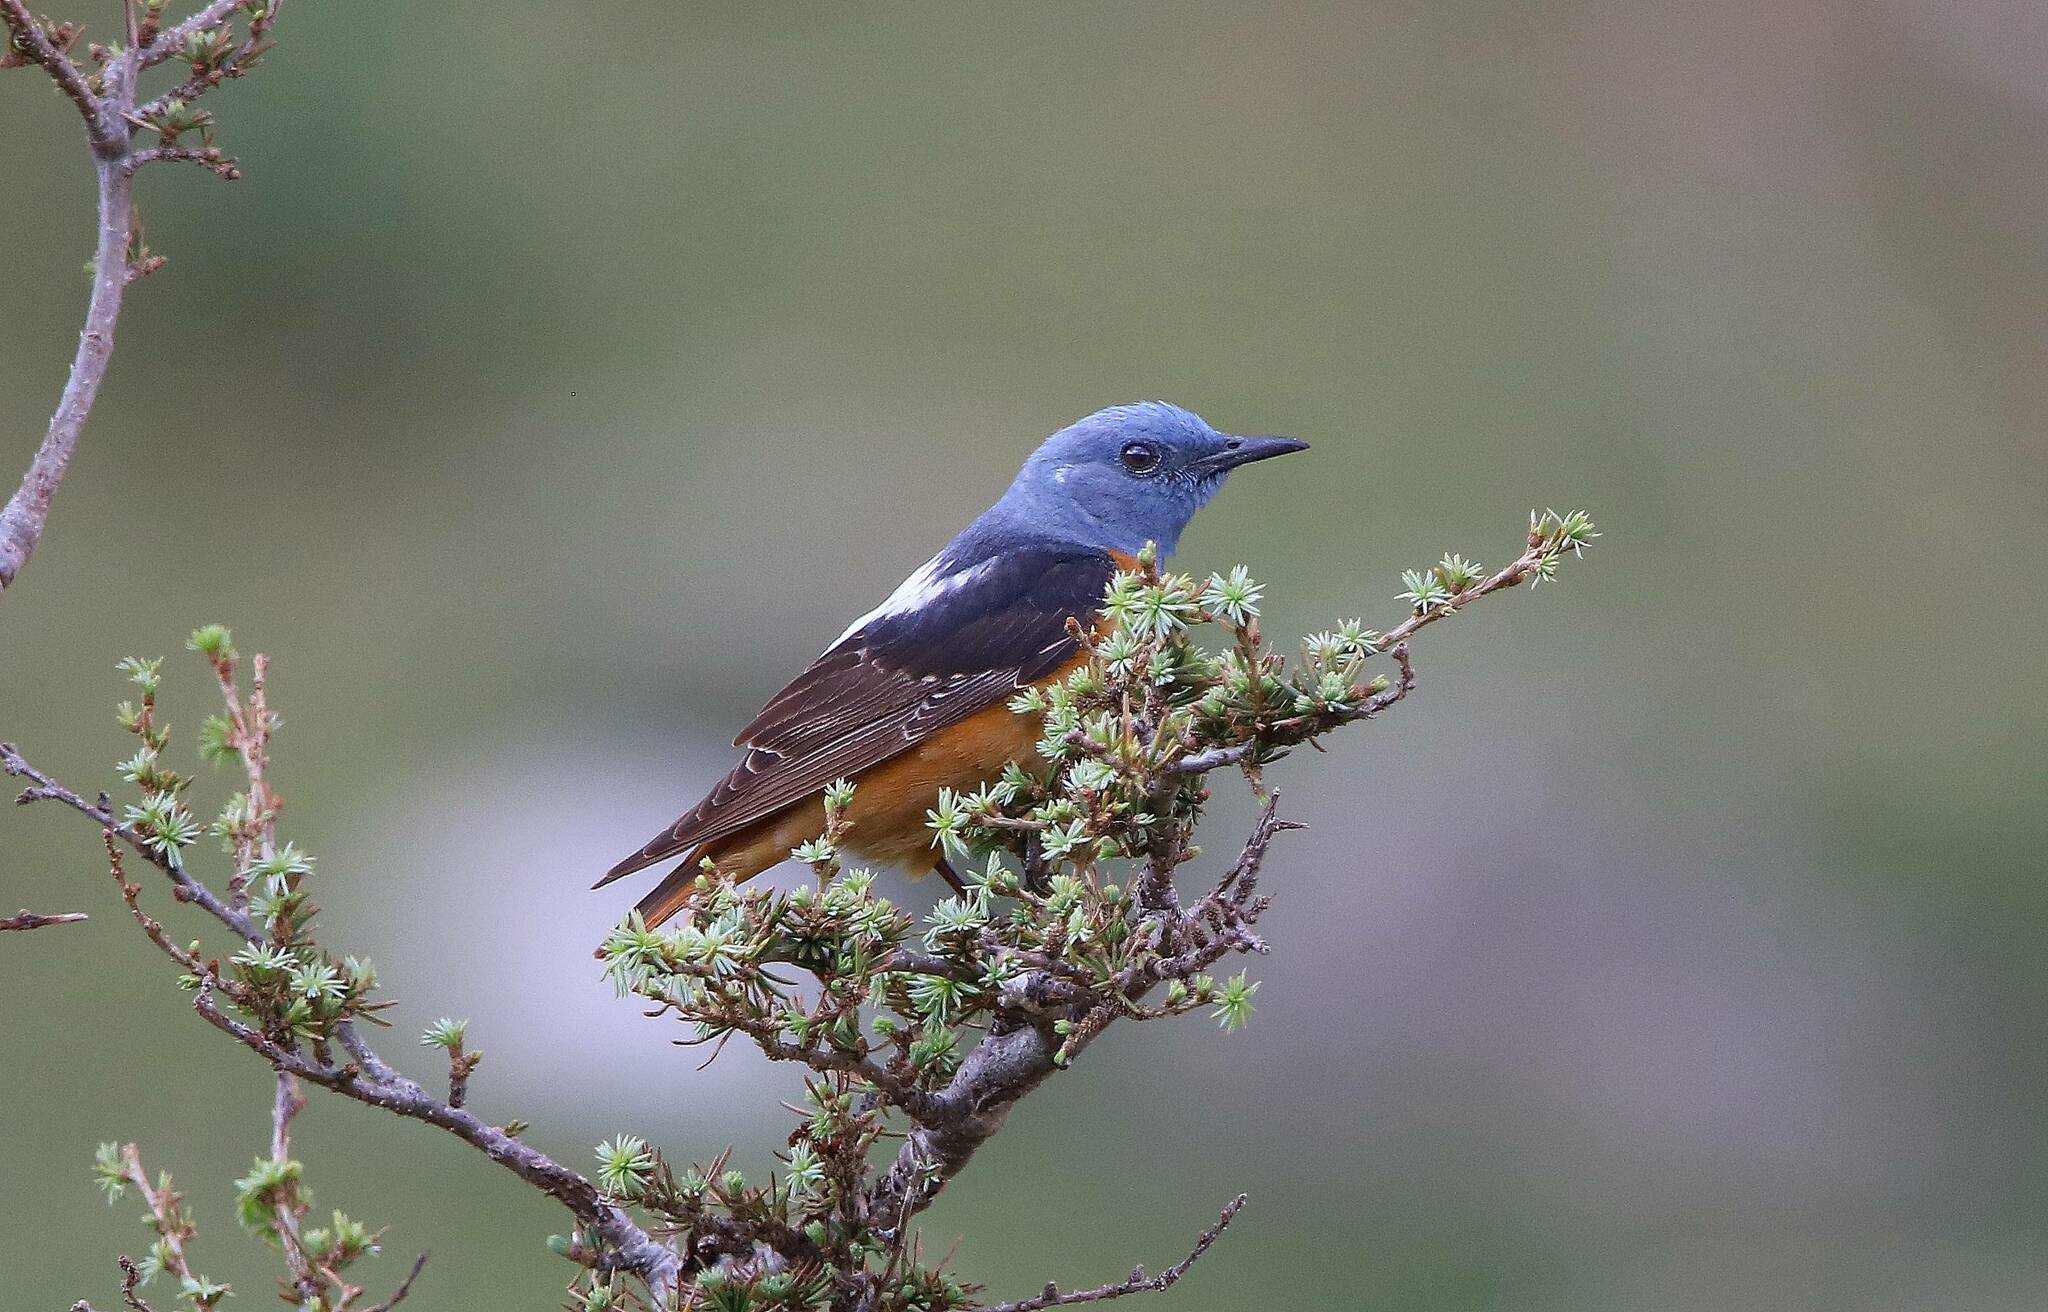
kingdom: Animalia
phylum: Chordata
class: Aves
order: Passeriformes
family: Muscicapidae
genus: Monticola
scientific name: Monticola saxatilis
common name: Rufous-tailed rock thrush
